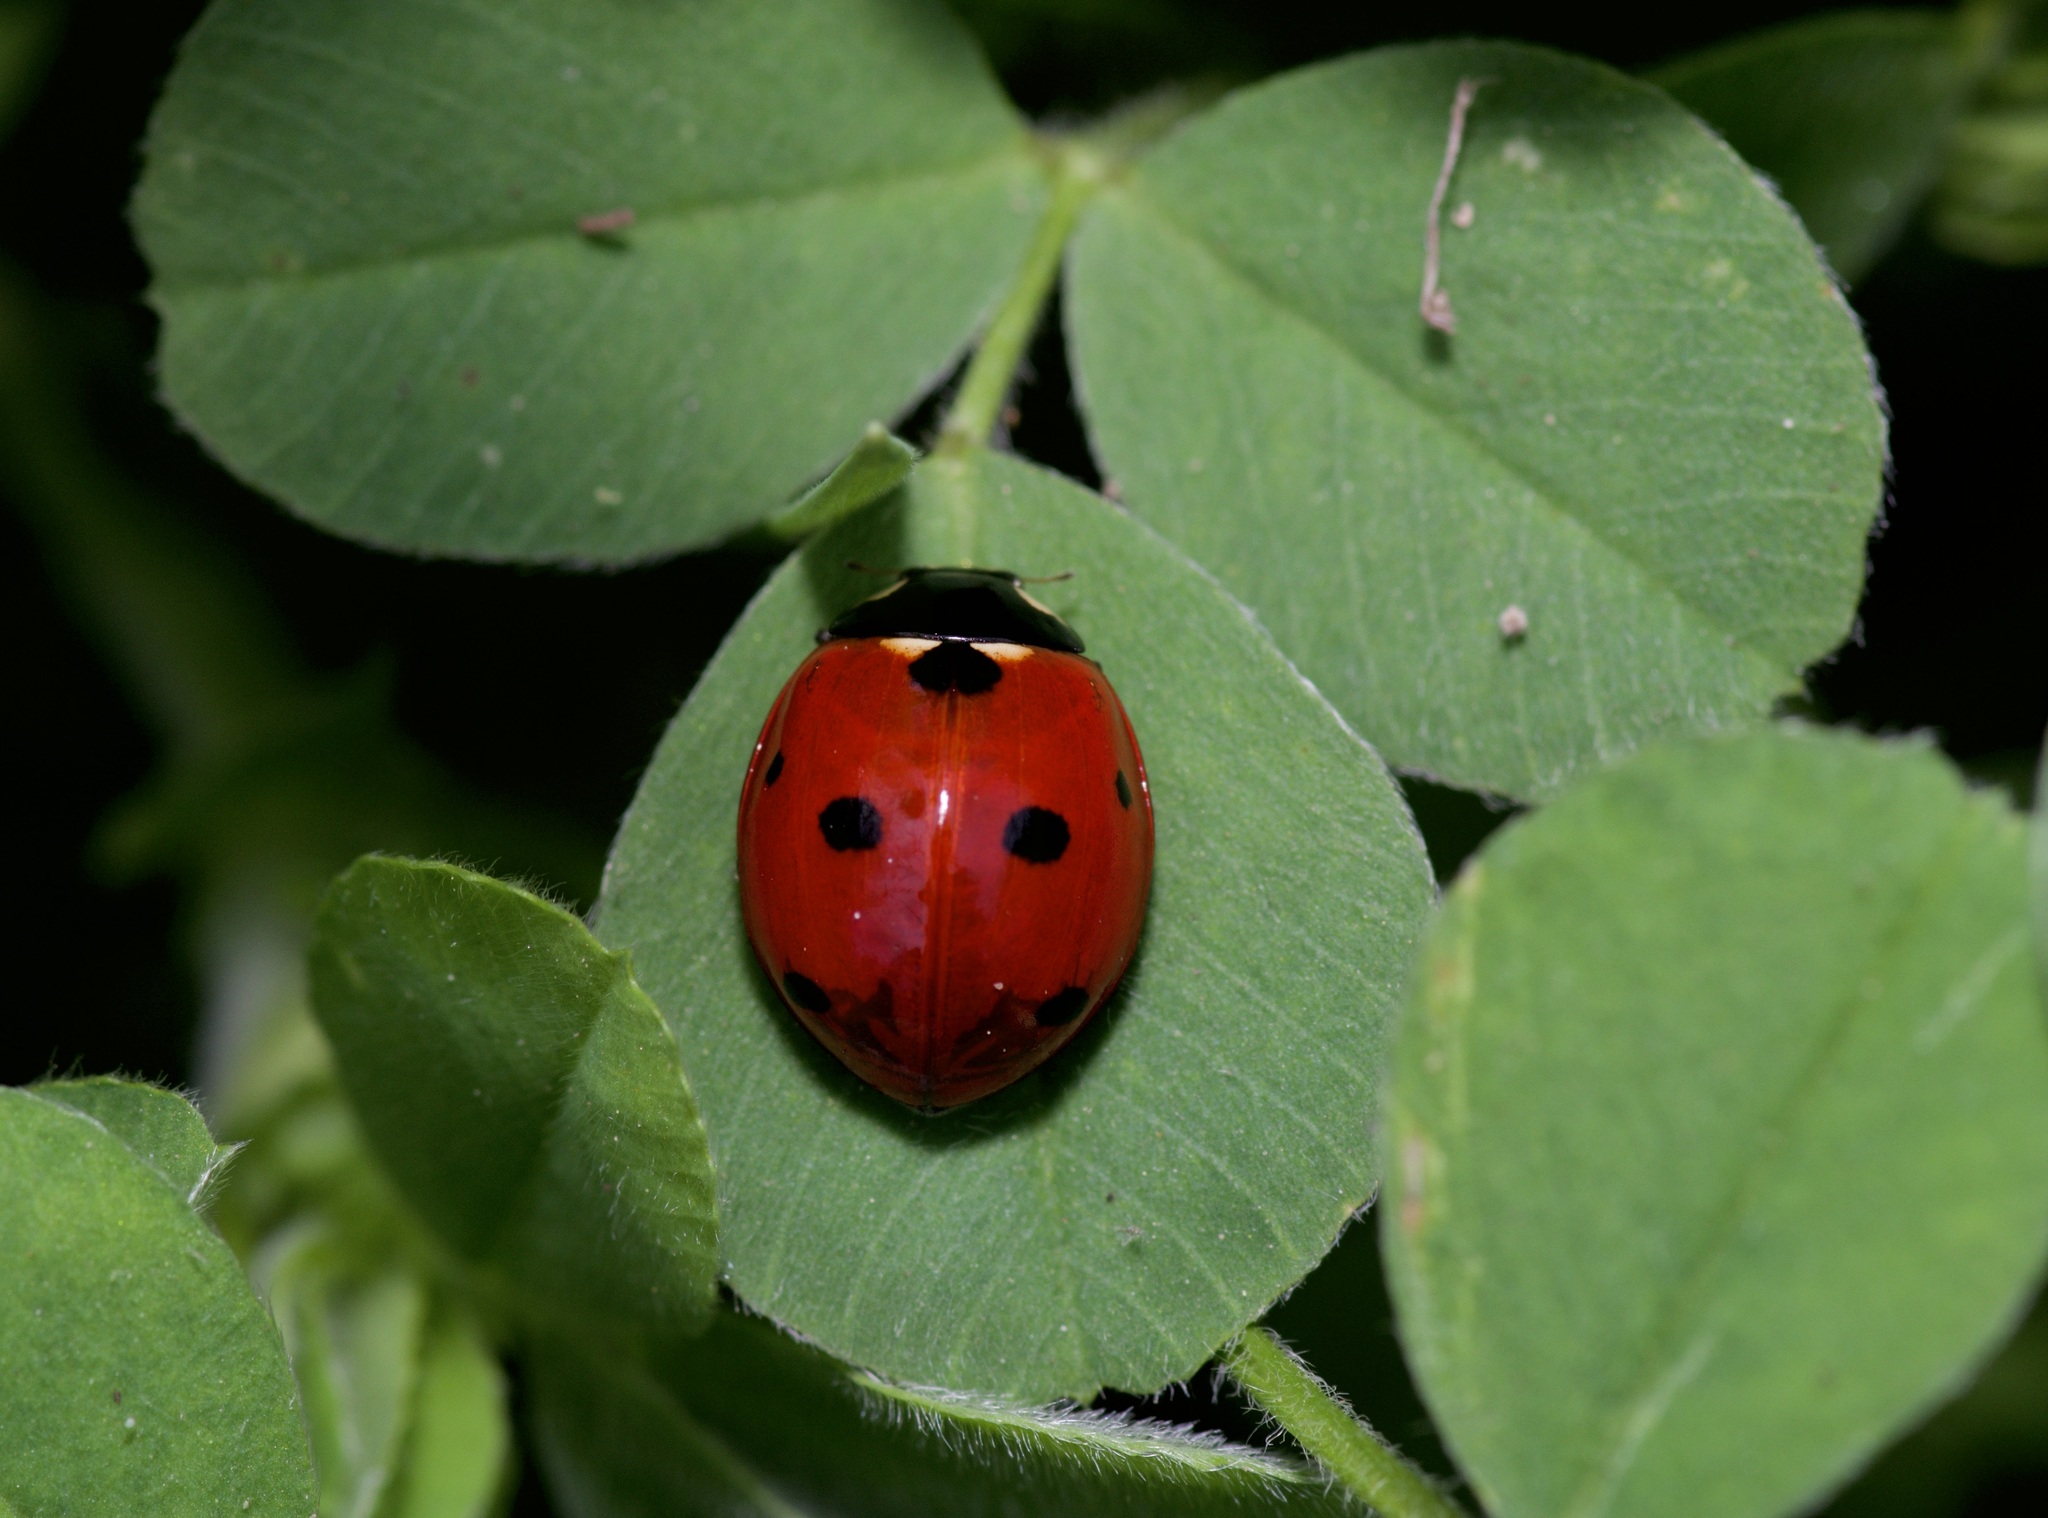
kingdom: Animalia
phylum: Arthropoda
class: Insecta
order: Coleoptera
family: Coccinellidae
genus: Coccinella
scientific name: Coccinella septempunctata
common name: Sevenspotted lady beetle
